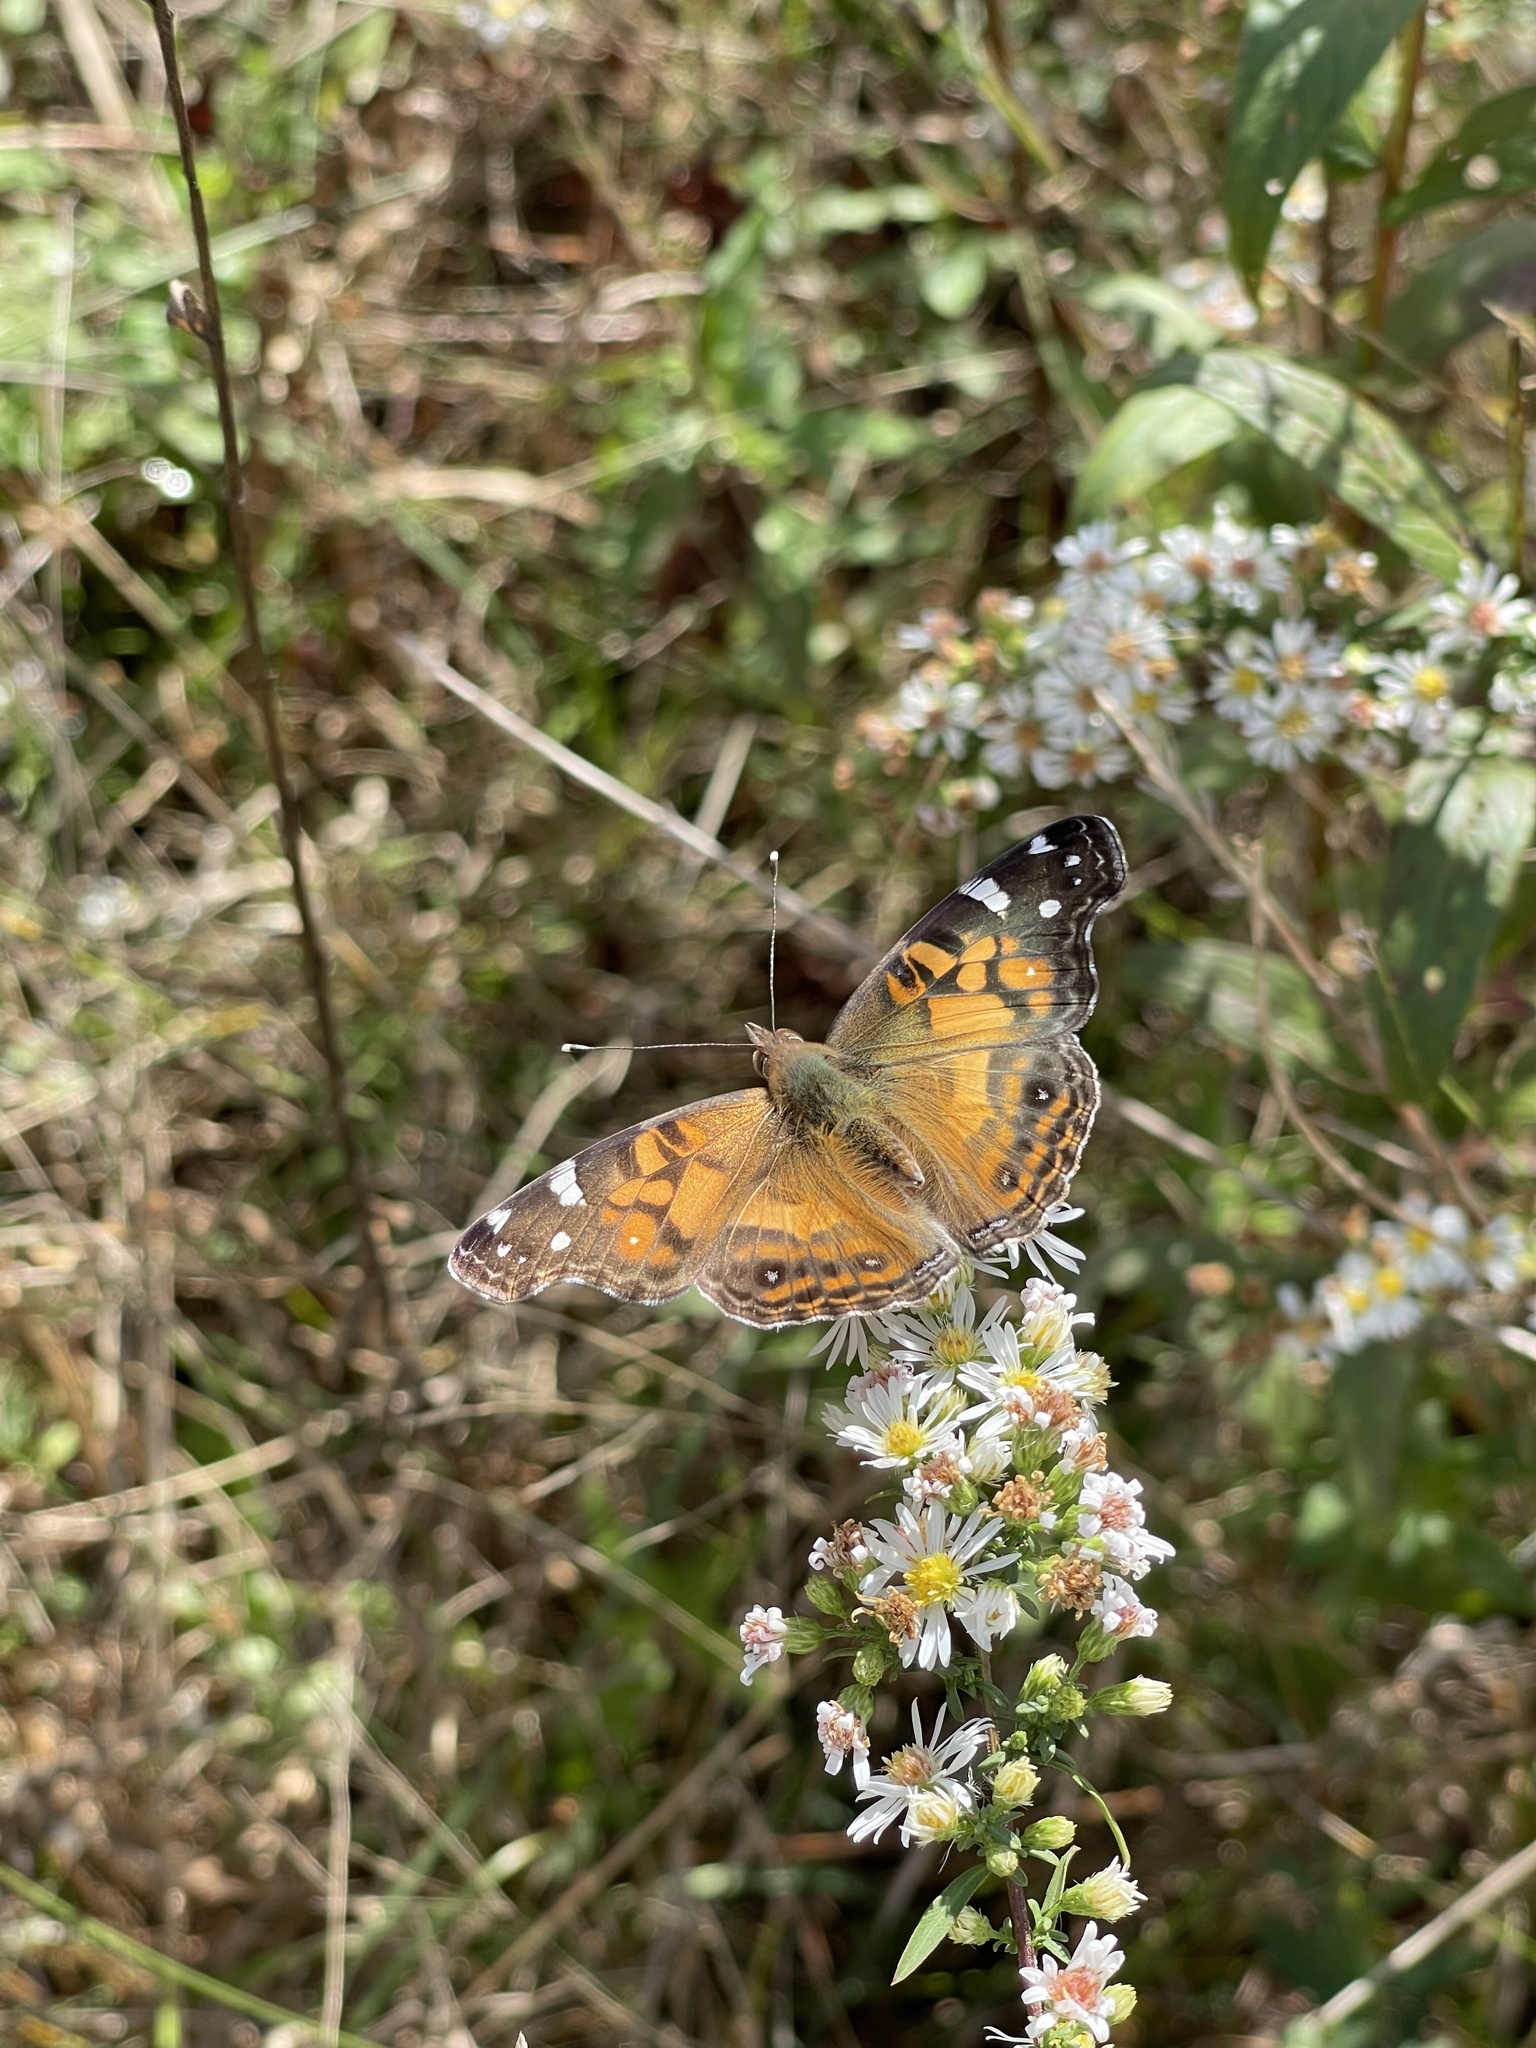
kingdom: Animalia
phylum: Arthropoda
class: Insecta
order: Lepidoptera
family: Nymphalidae
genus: Vanessa
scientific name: Vanessa virginiensis
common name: American lady
